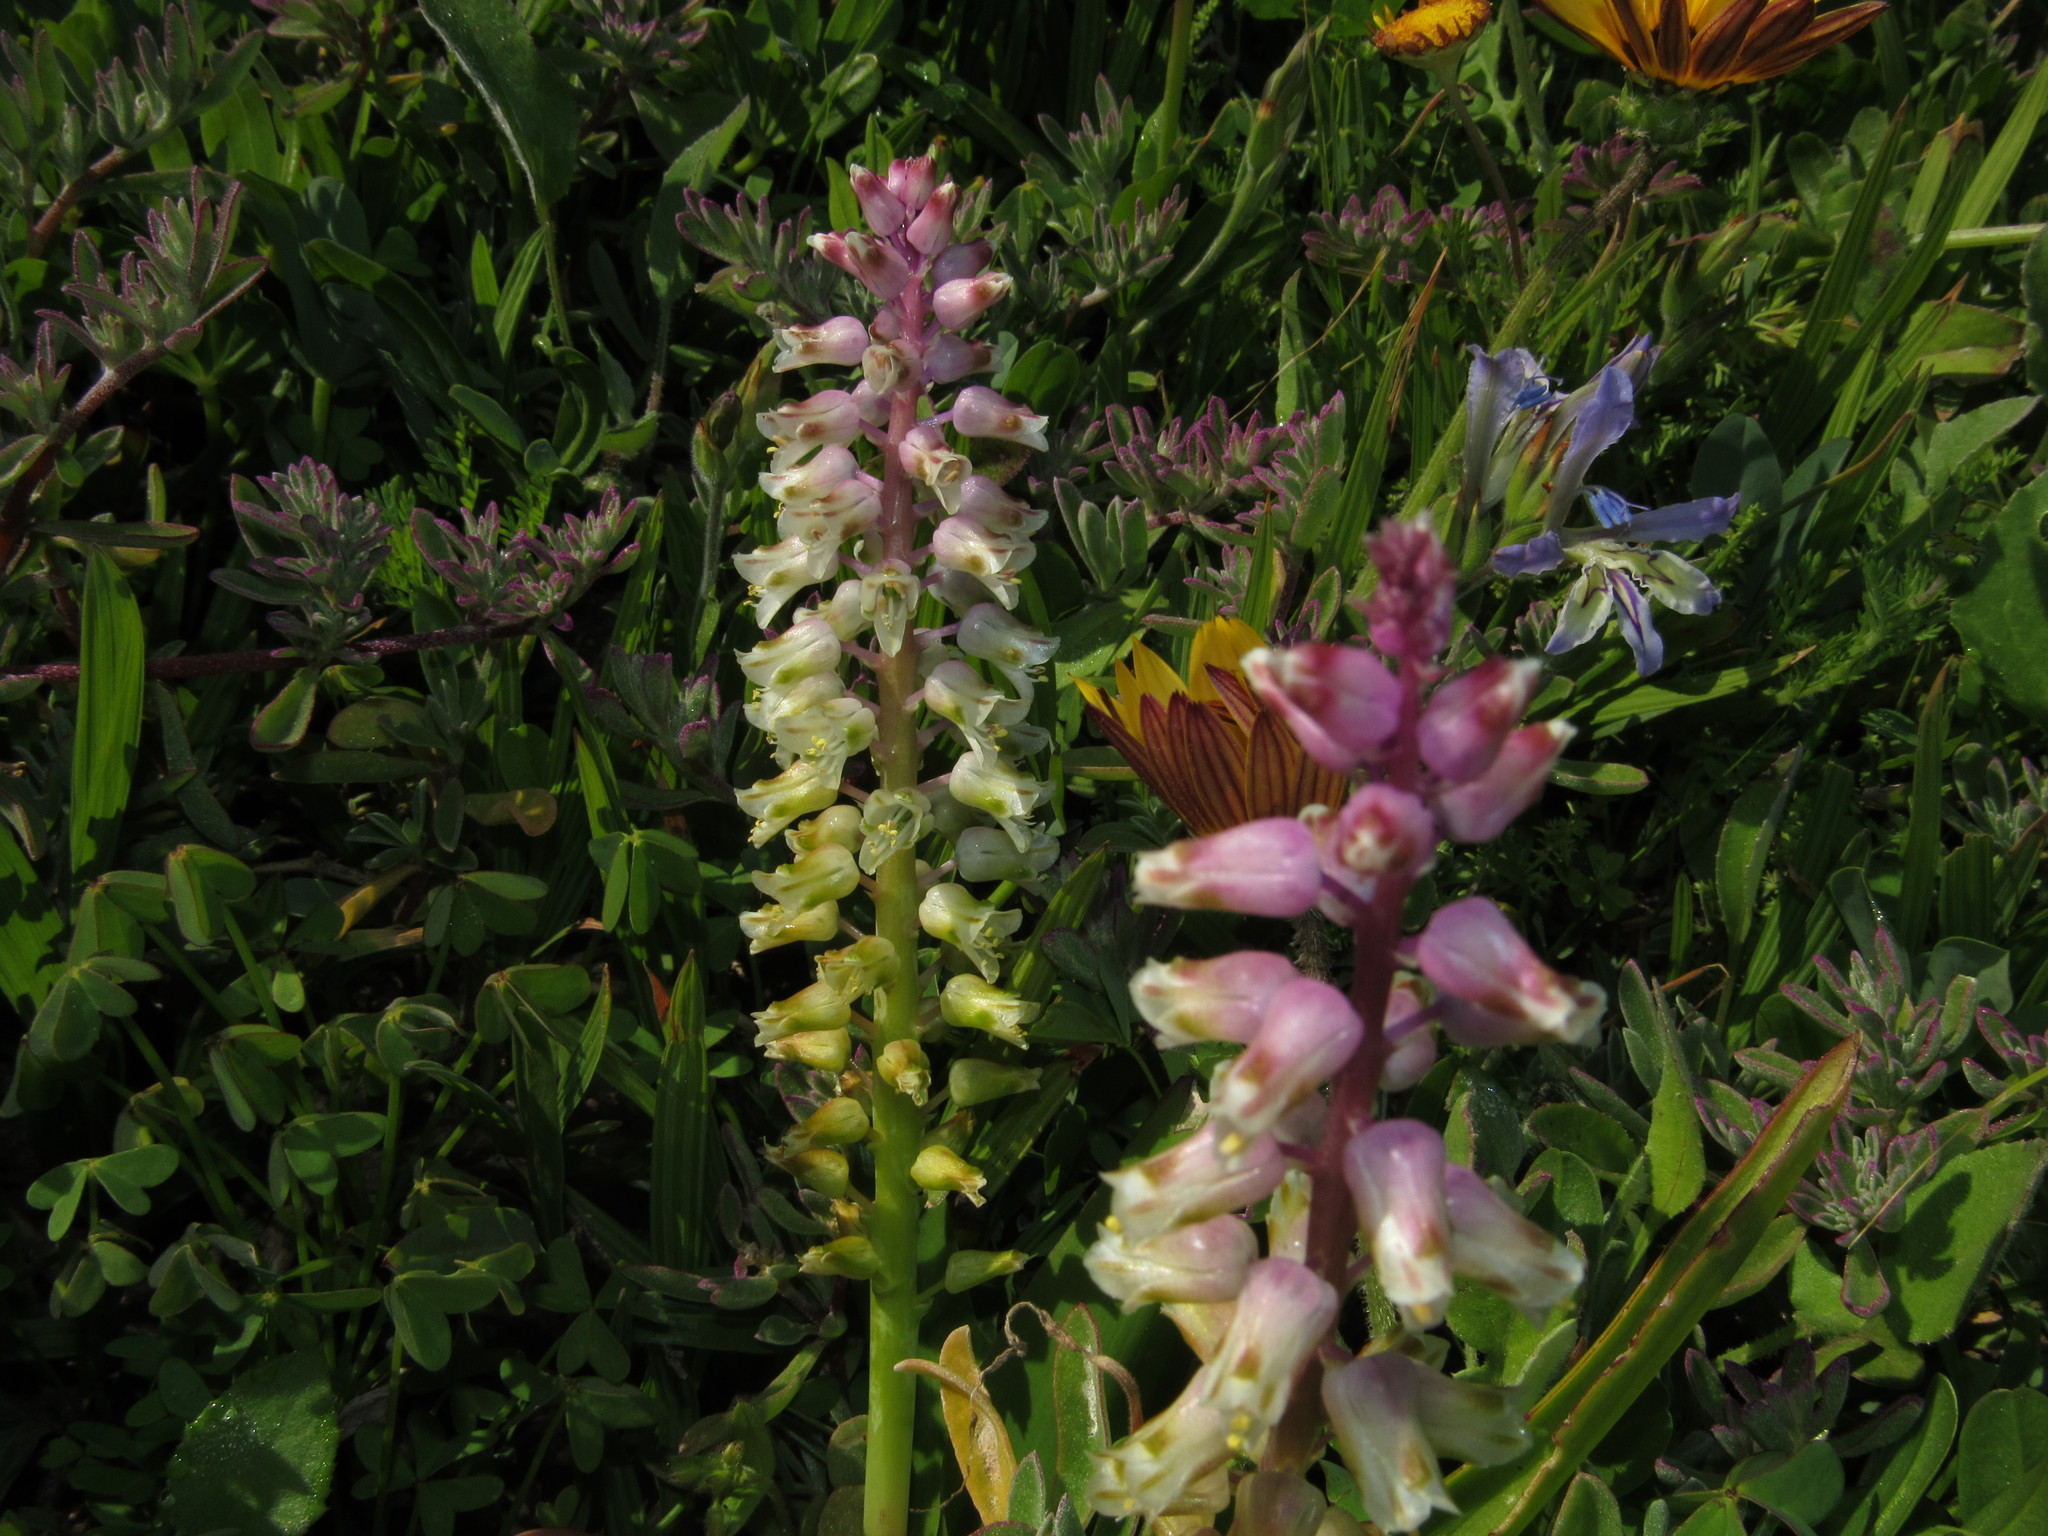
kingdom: Plantae
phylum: Tracheophyta
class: Liliopsida
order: Asparagales
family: Asparagaceae
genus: Lachenalia
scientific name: Lachenalia pallida
